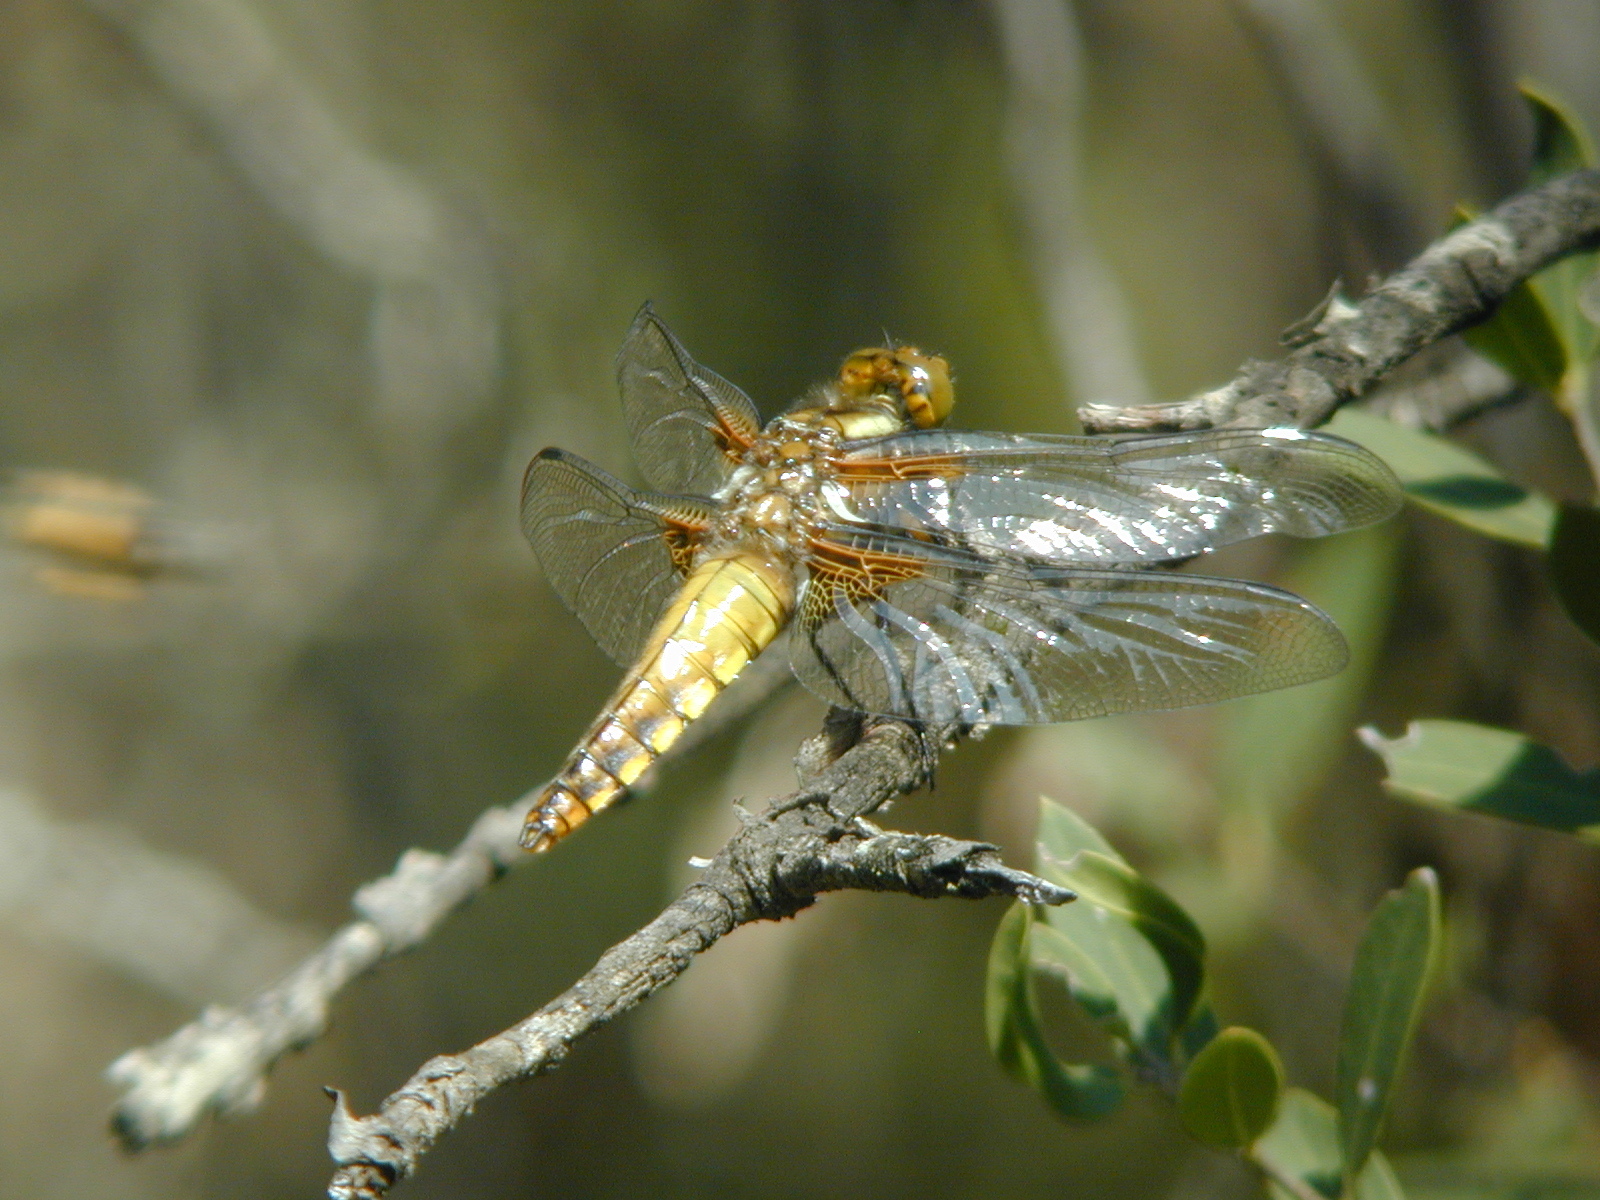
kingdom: Animalia
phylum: Arthropoda
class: Insecta
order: Odonata
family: Libellulidae
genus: Libellula
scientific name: Libellula depressa
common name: Broad-bodied chaser
